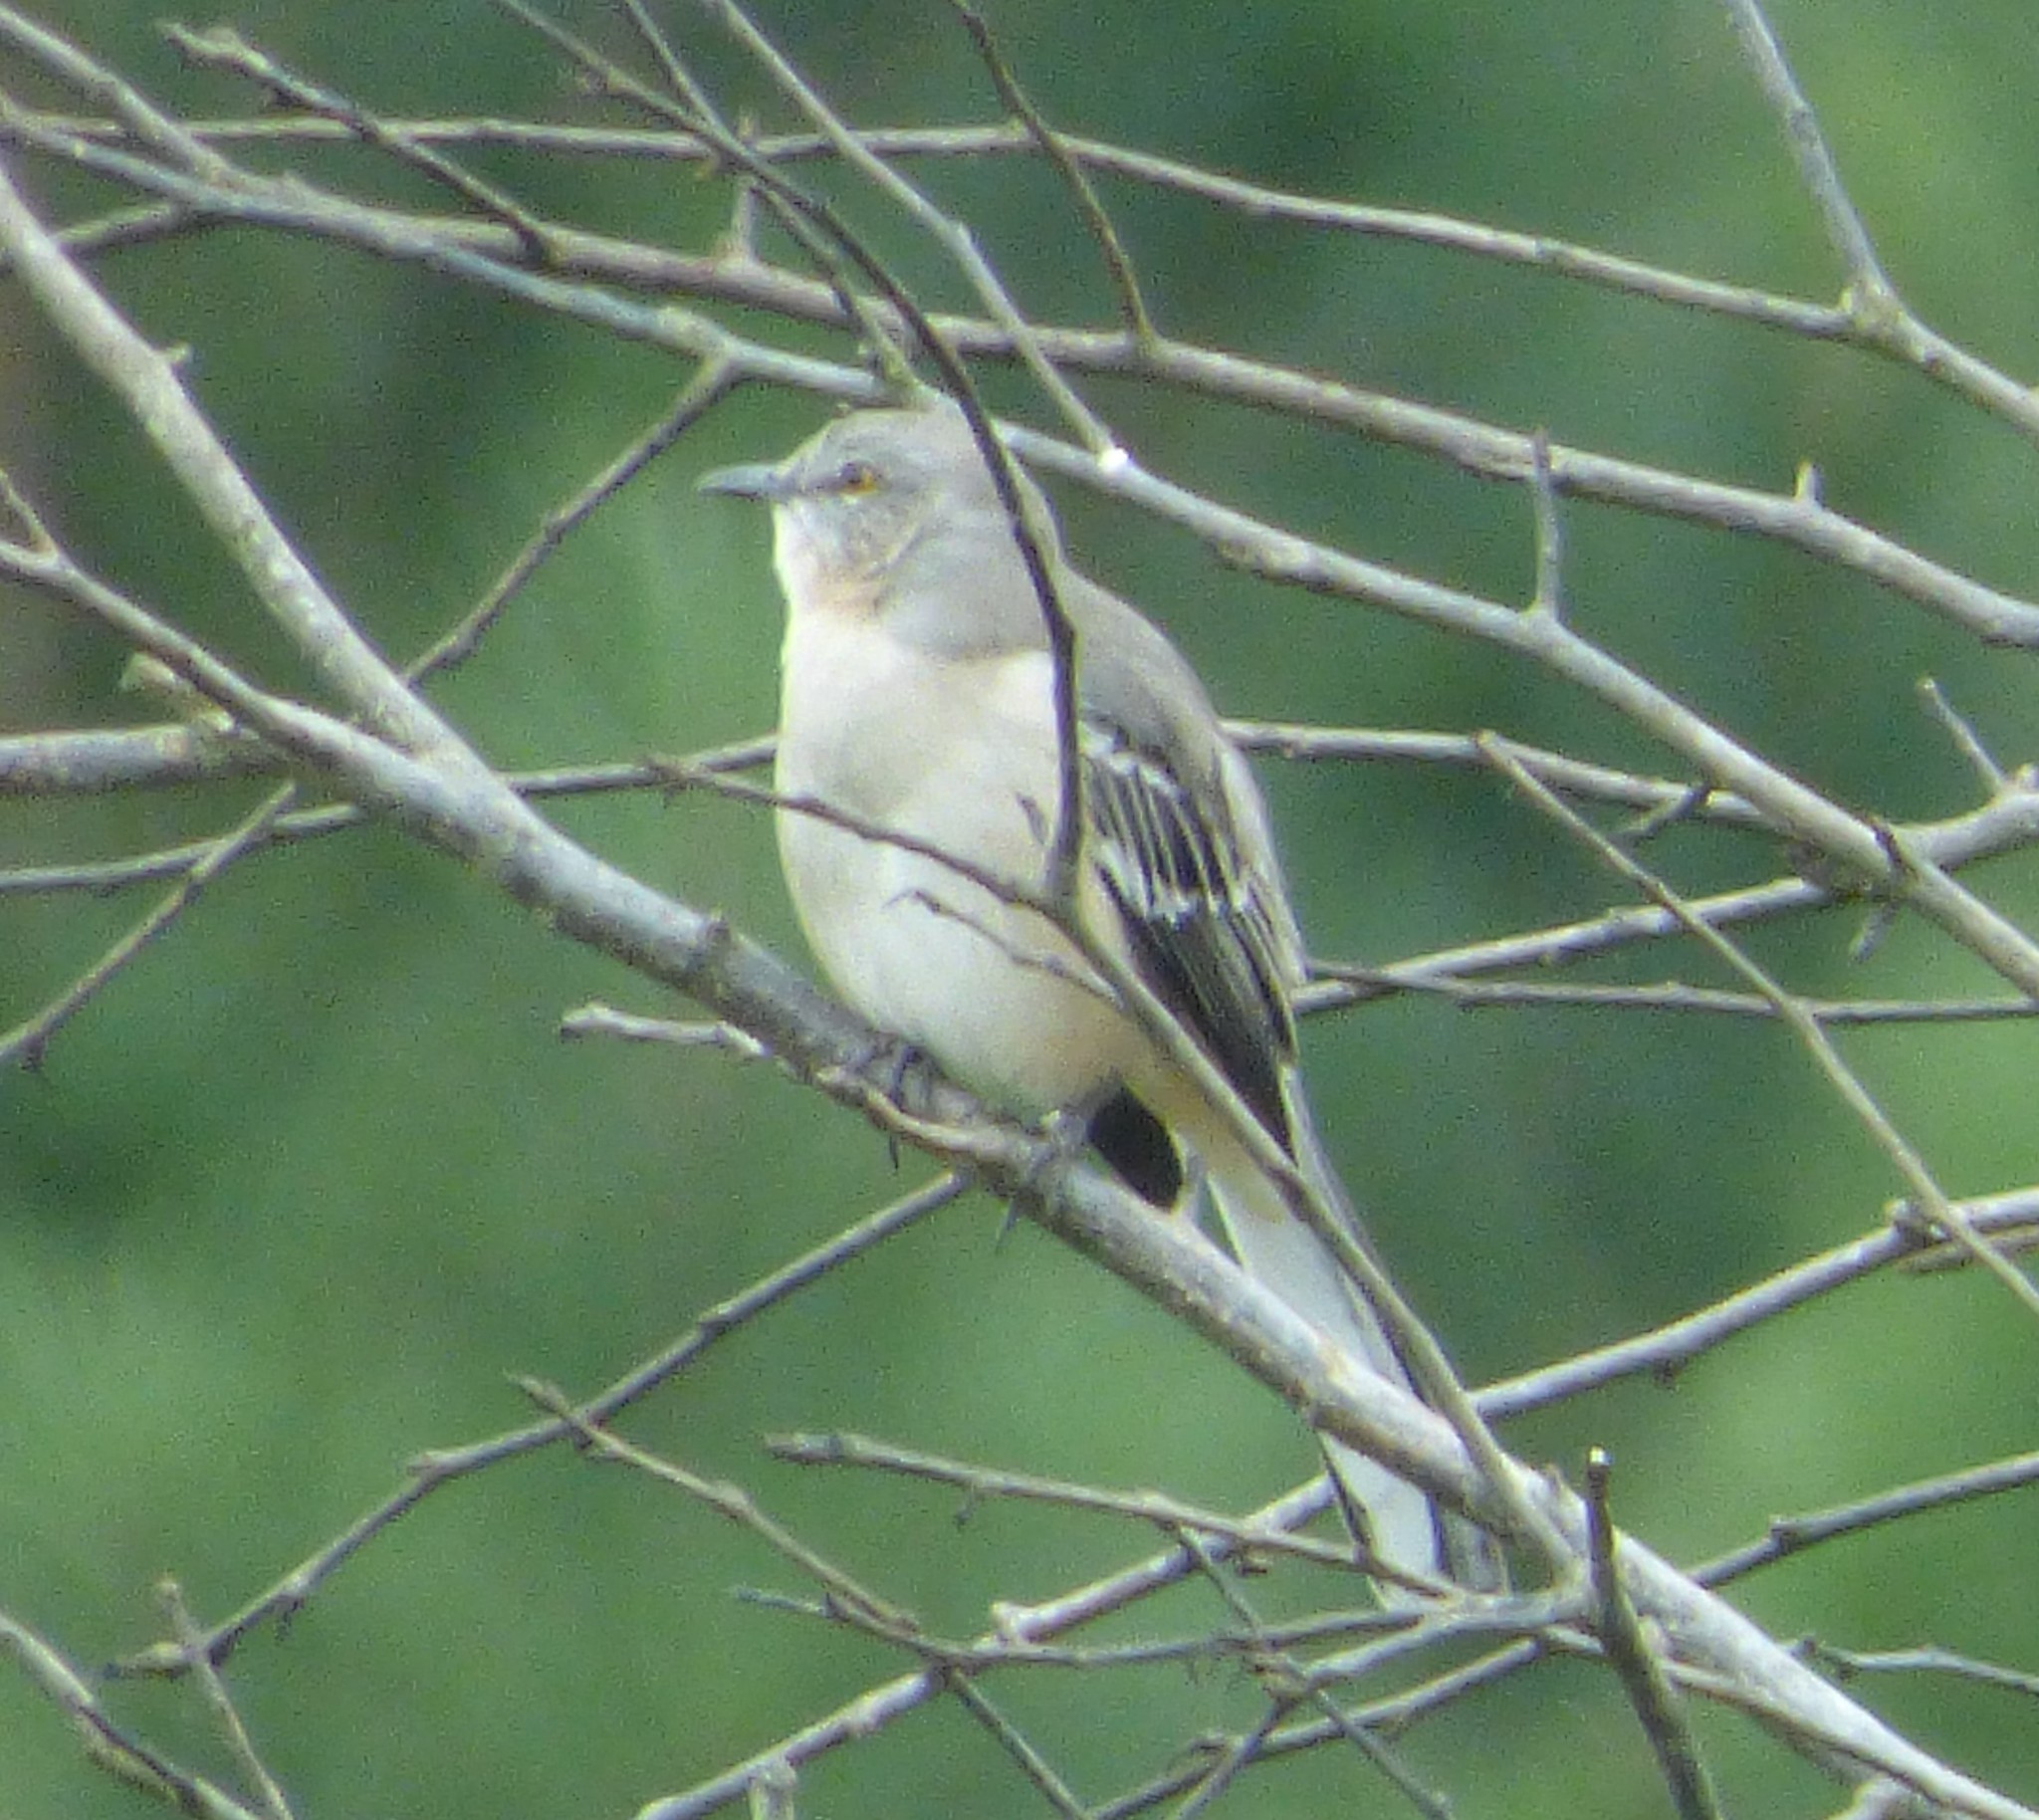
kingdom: Animalia
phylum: Chordata
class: Aves
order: Passeriformes
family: Mimidae
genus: Mimus
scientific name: Mimus polyglottos
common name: Northern mockingbird
